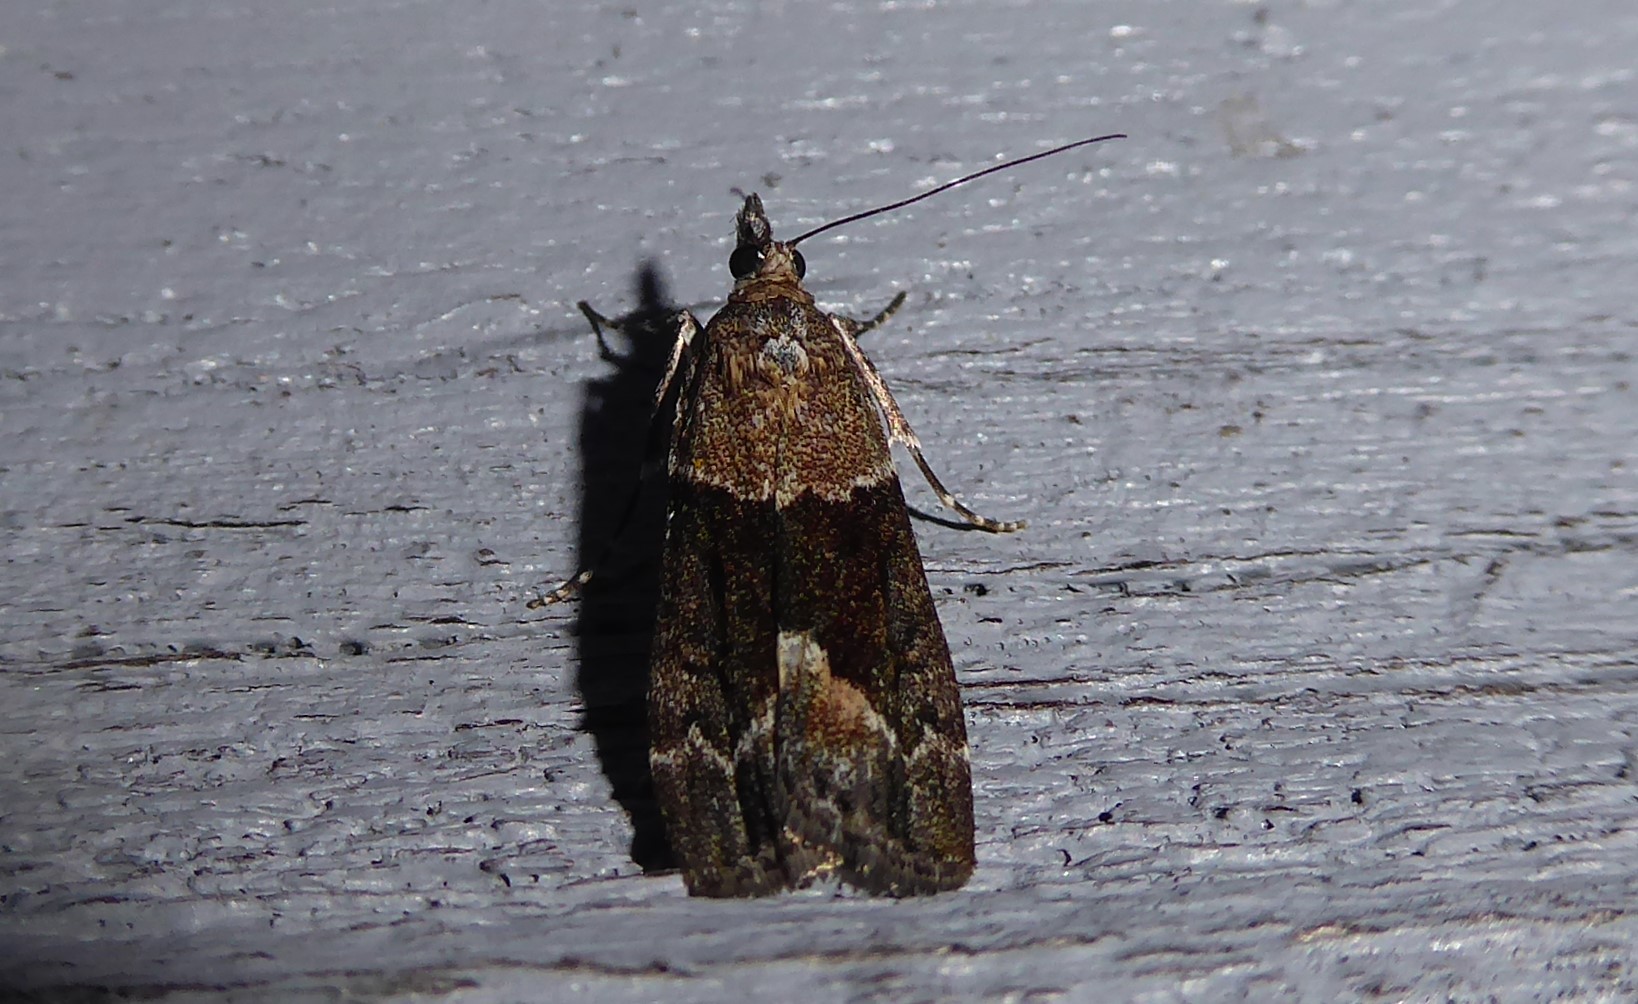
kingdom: Animalia
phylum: Arthropoda
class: Insecta
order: Lepidoptera
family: Crambidae
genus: Eudonia
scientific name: Eudonia submarginalis
